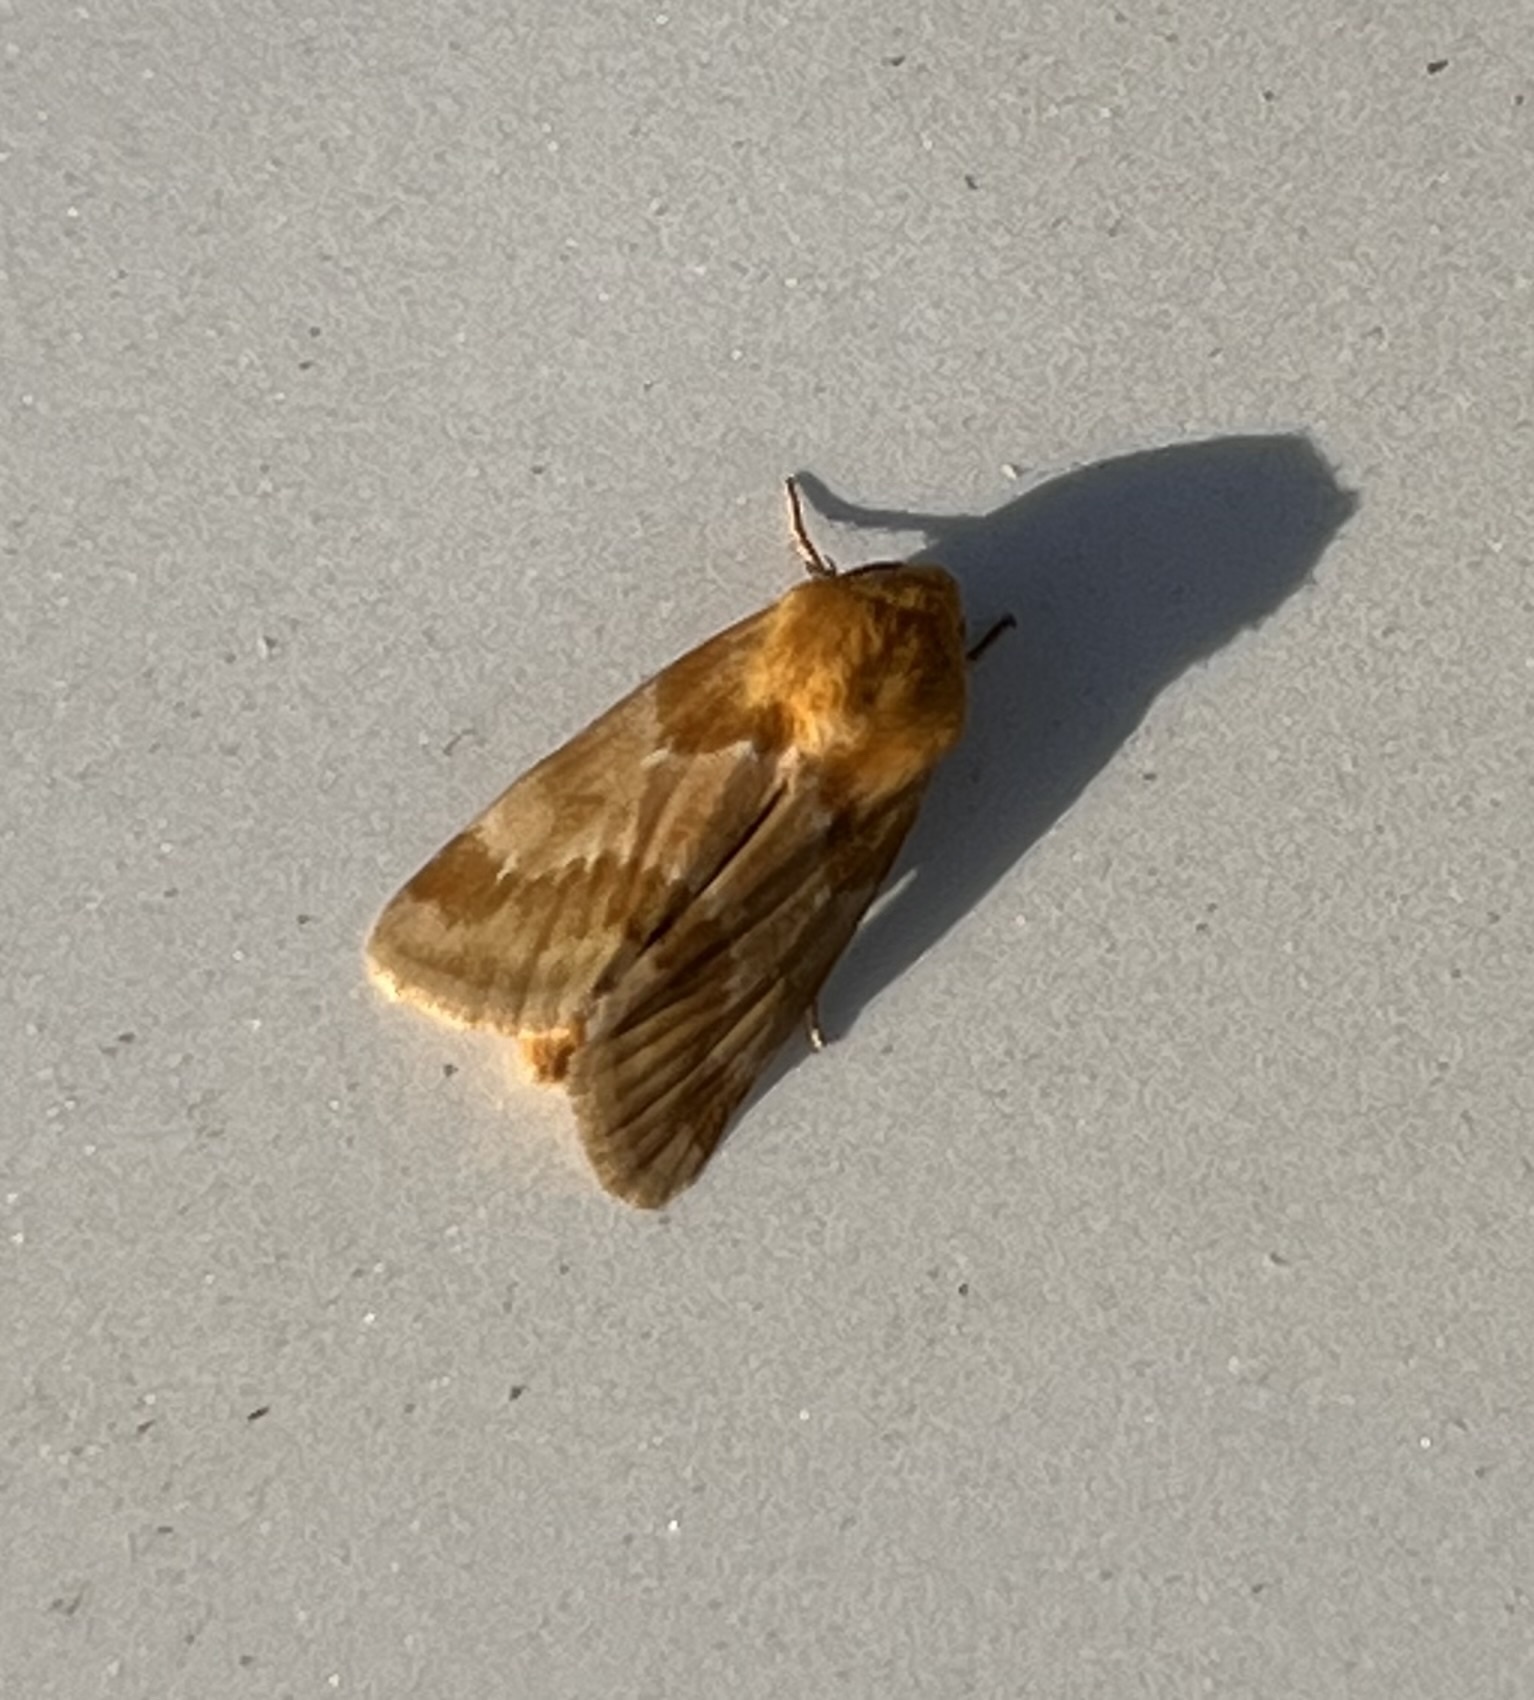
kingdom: Animalia
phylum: Arthropoda
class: Insecta
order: Lepidoptera
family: Noctuidae
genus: Schinia
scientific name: Schinia siren
